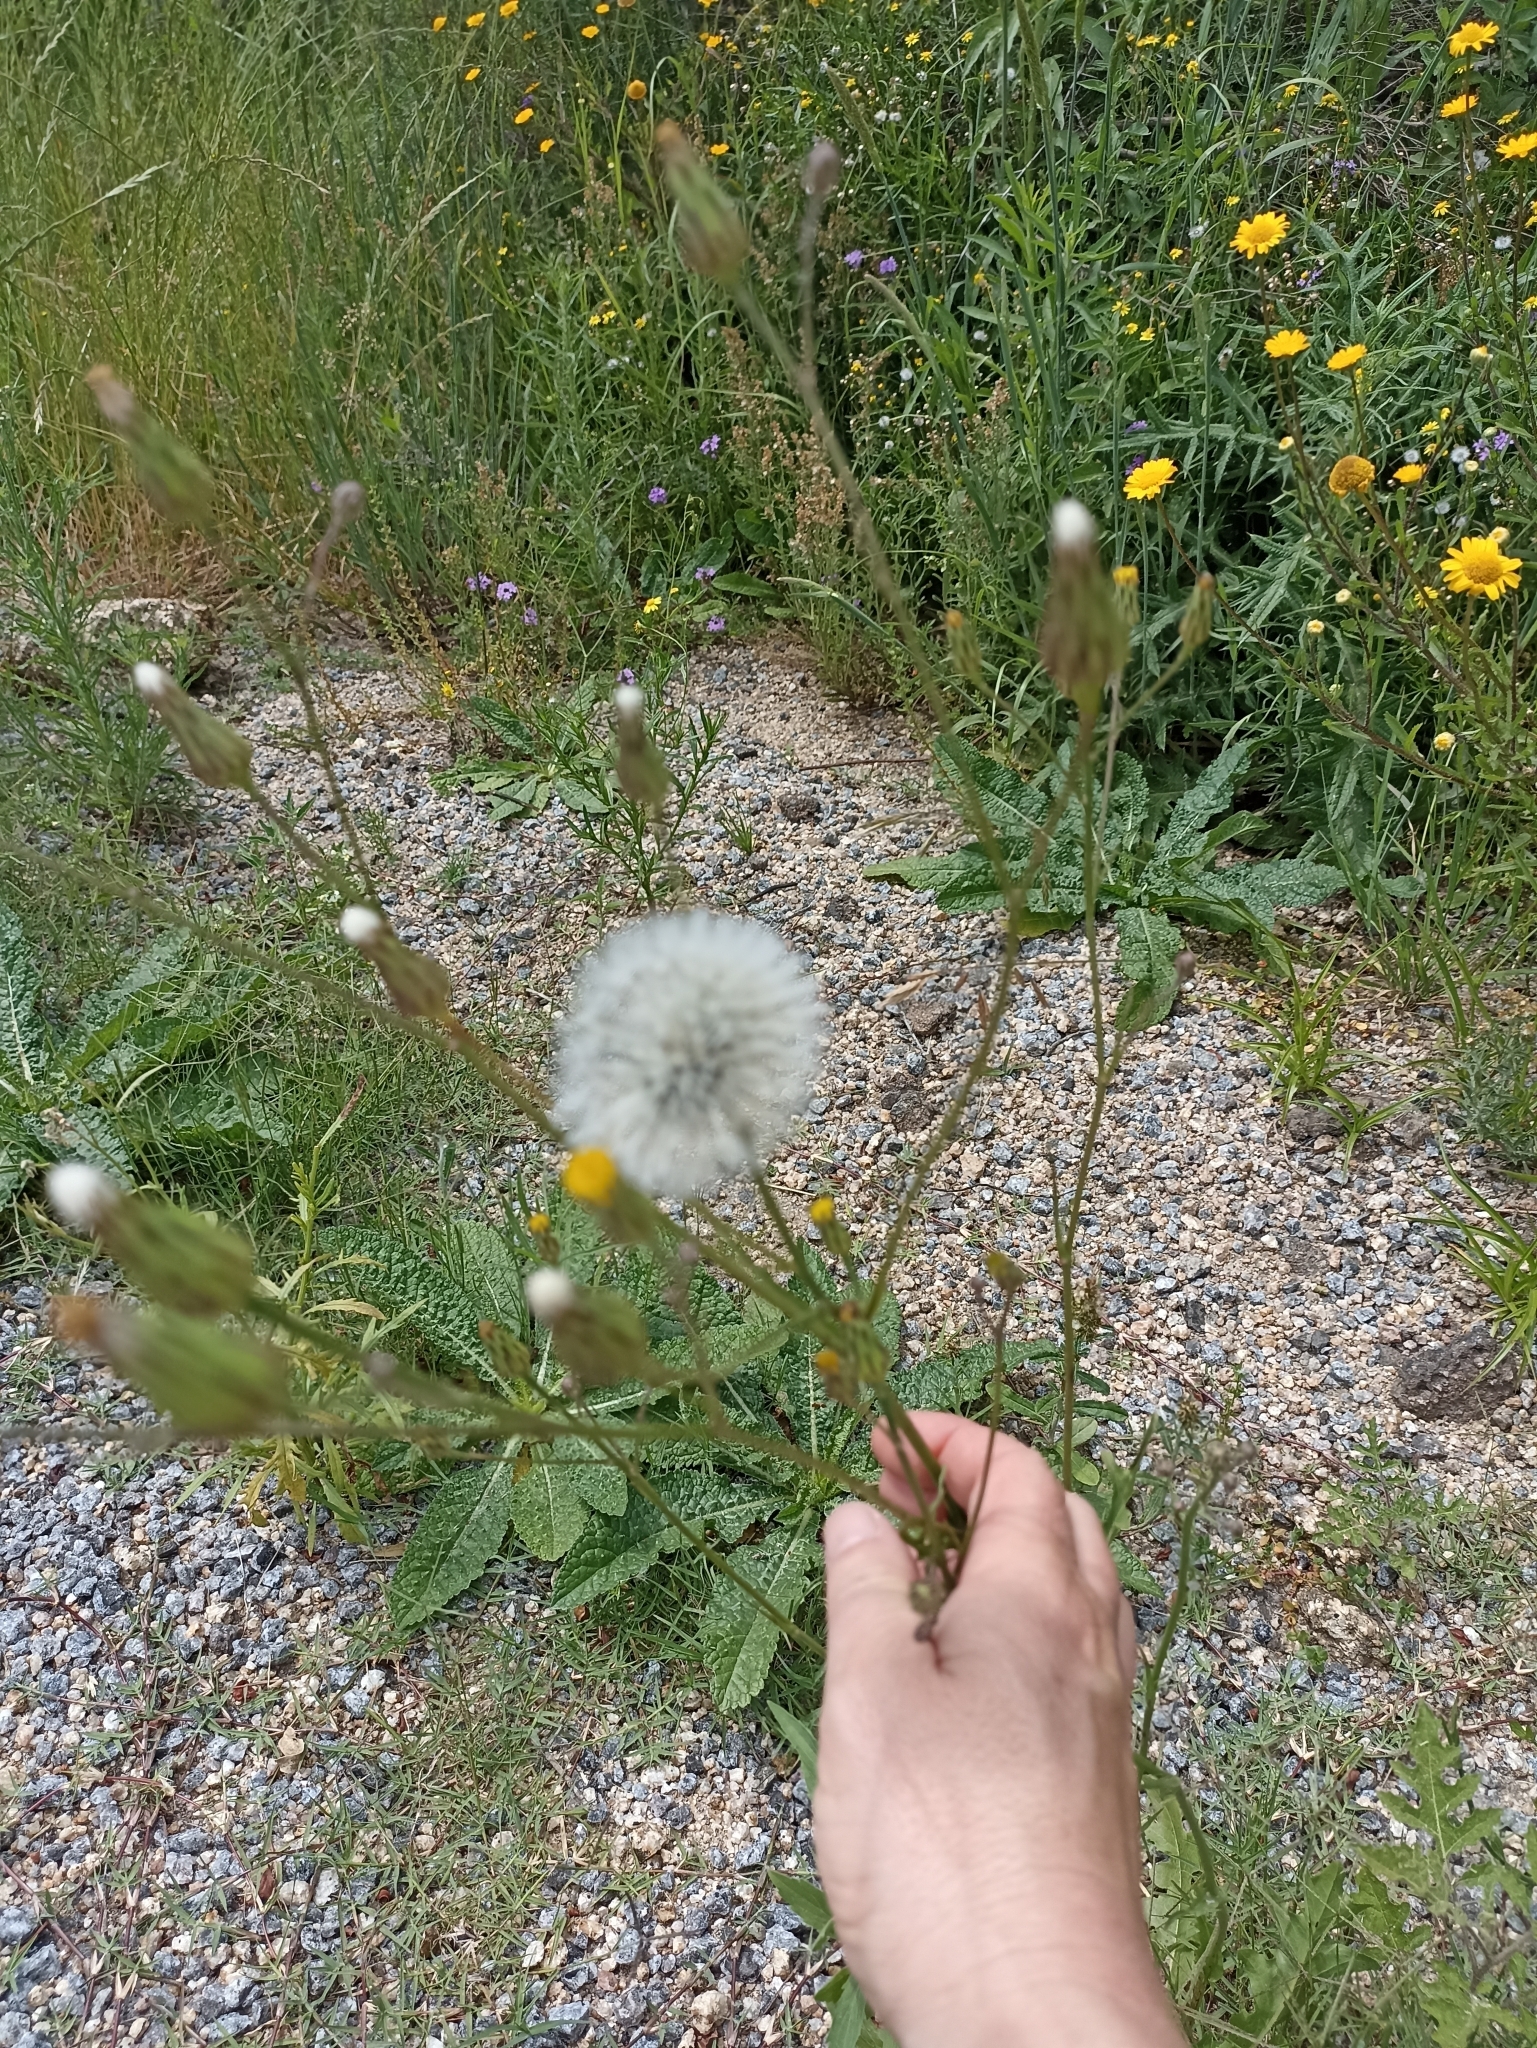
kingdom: Plantae
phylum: Tracheophyta
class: Magnoliopsida
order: Asterales
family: Asteraceae
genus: Hypochaeris
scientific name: Hypochaeris chillensis
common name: Brazilian cat's ear
